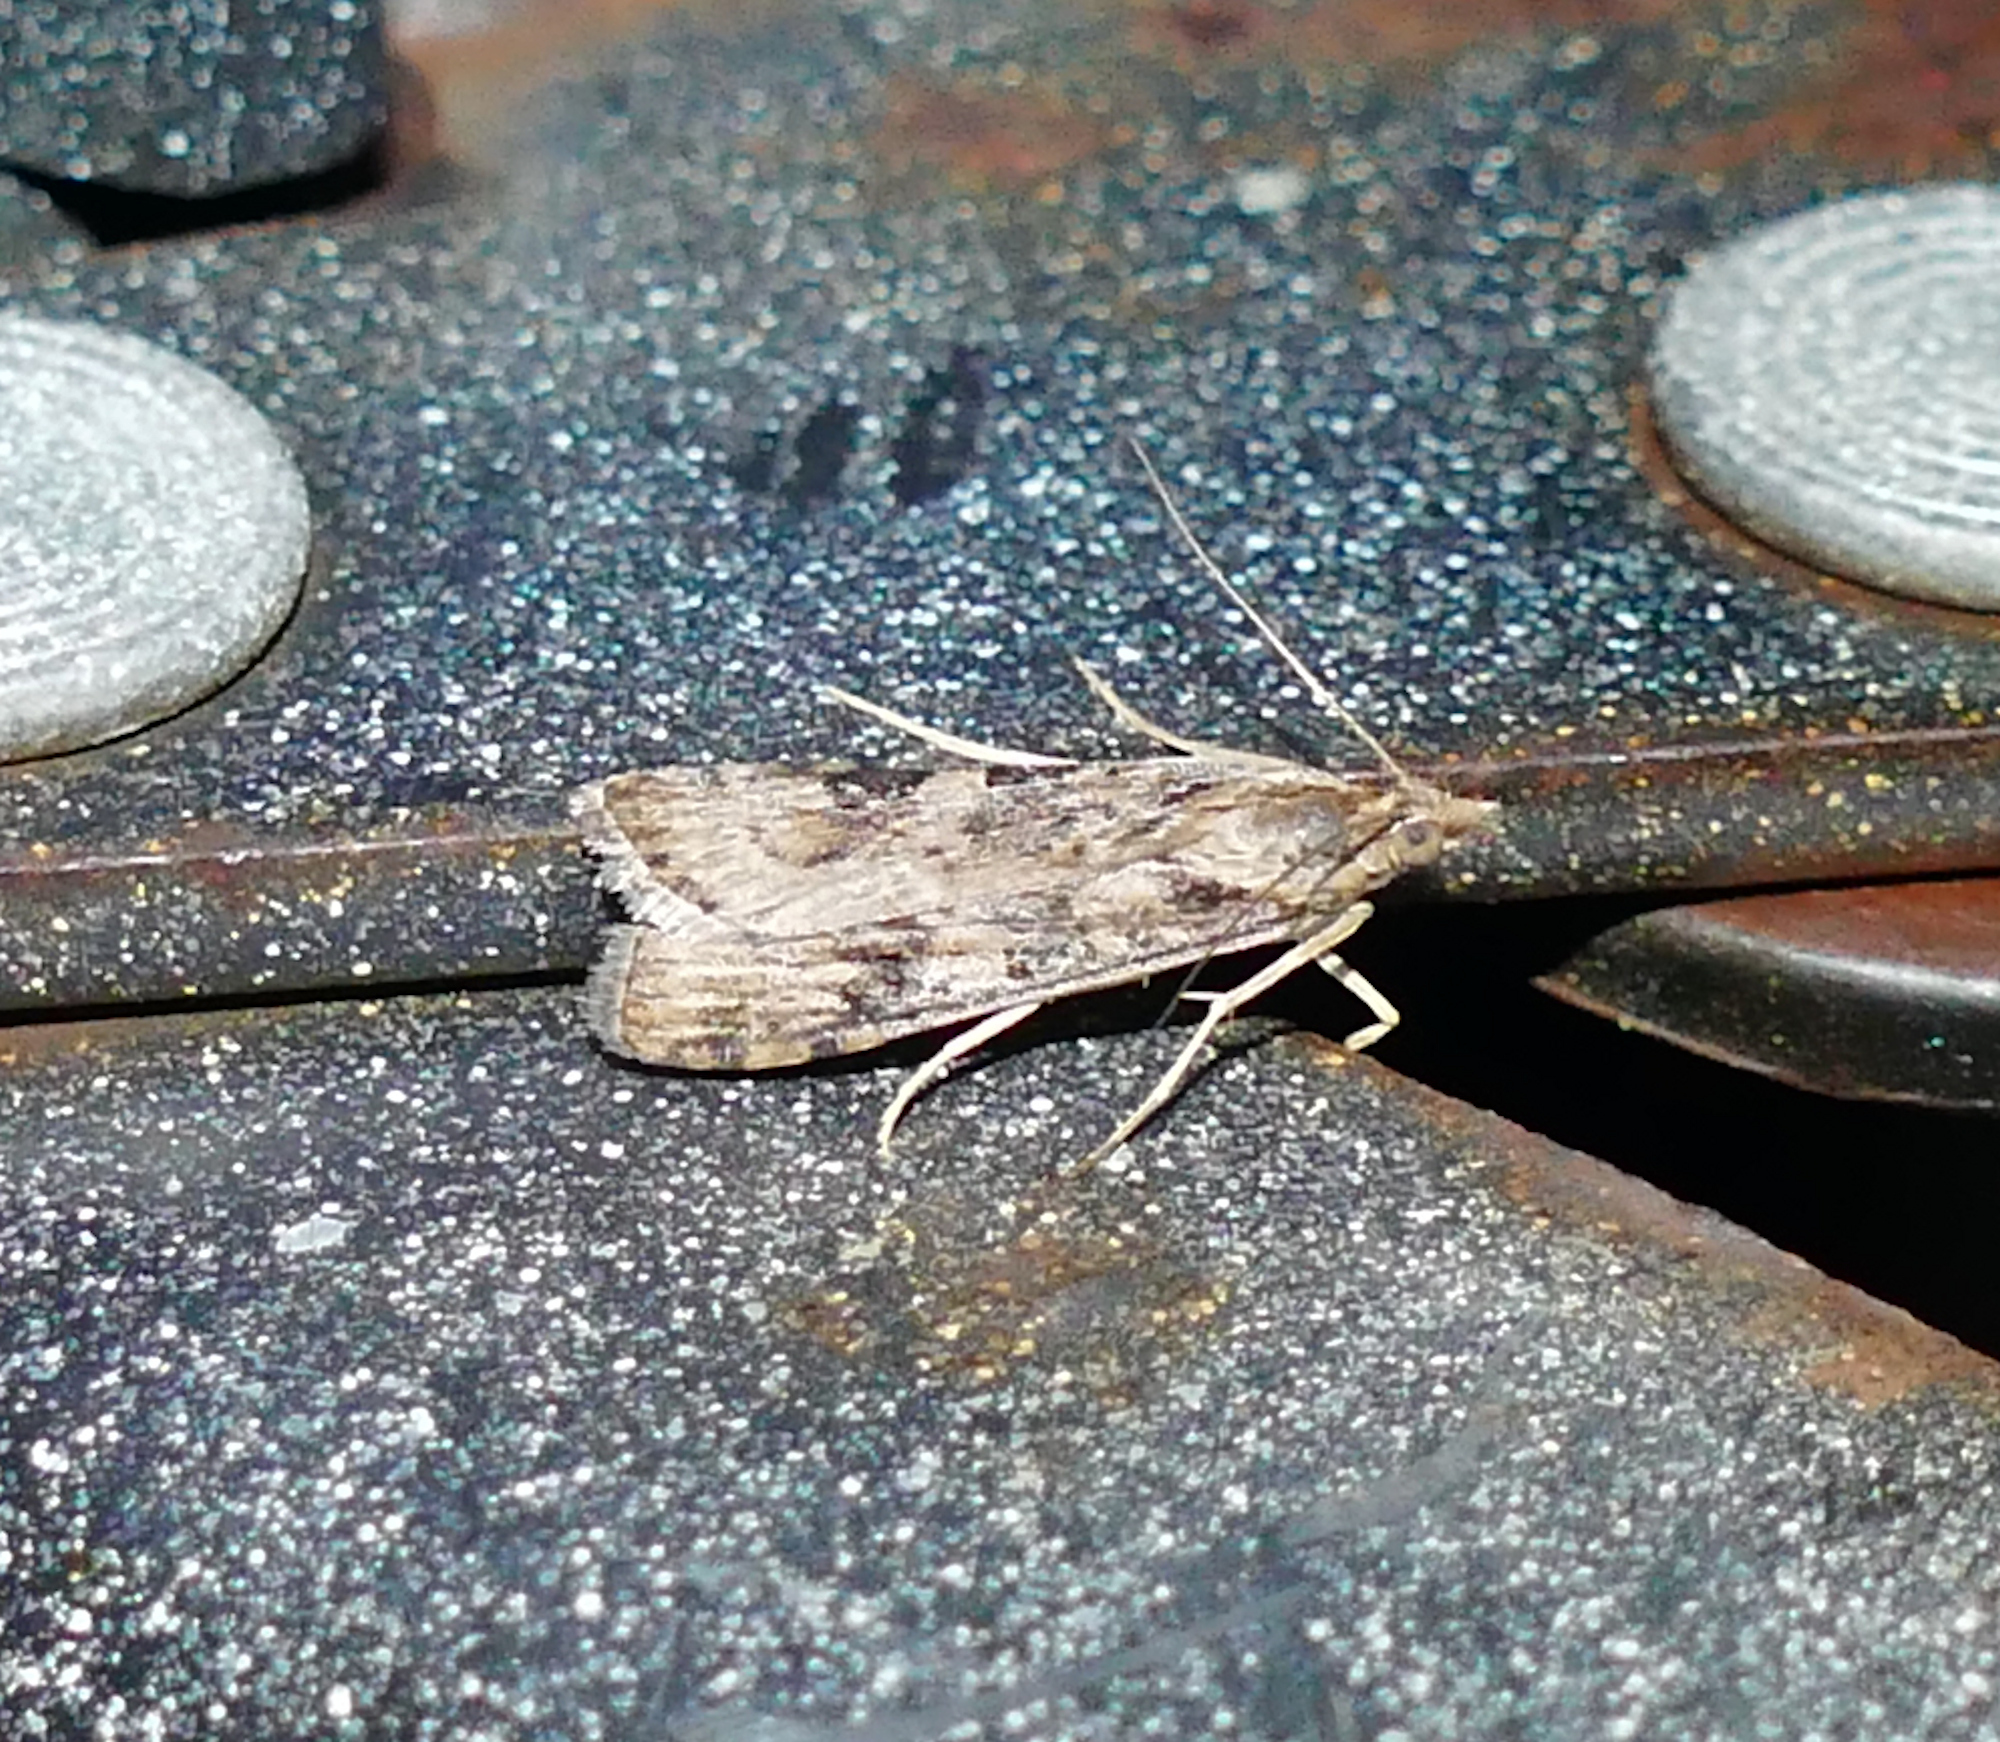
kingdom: Animalia
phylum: Arthropoda
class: Insecta
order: Lepidoptera
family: Crambidae
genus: Nomophila
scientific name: Nomophila nearctica
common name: American rush veneer
